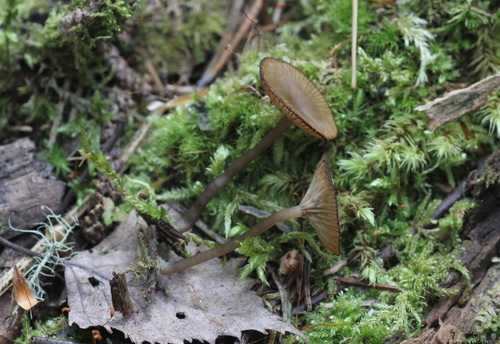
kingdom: Fungi
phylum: Basidiomycota
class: Agaricomycetes
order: Agaricales
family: Hygrophoraceae
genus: Arrhenia
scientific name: Arrhenia epichysium
